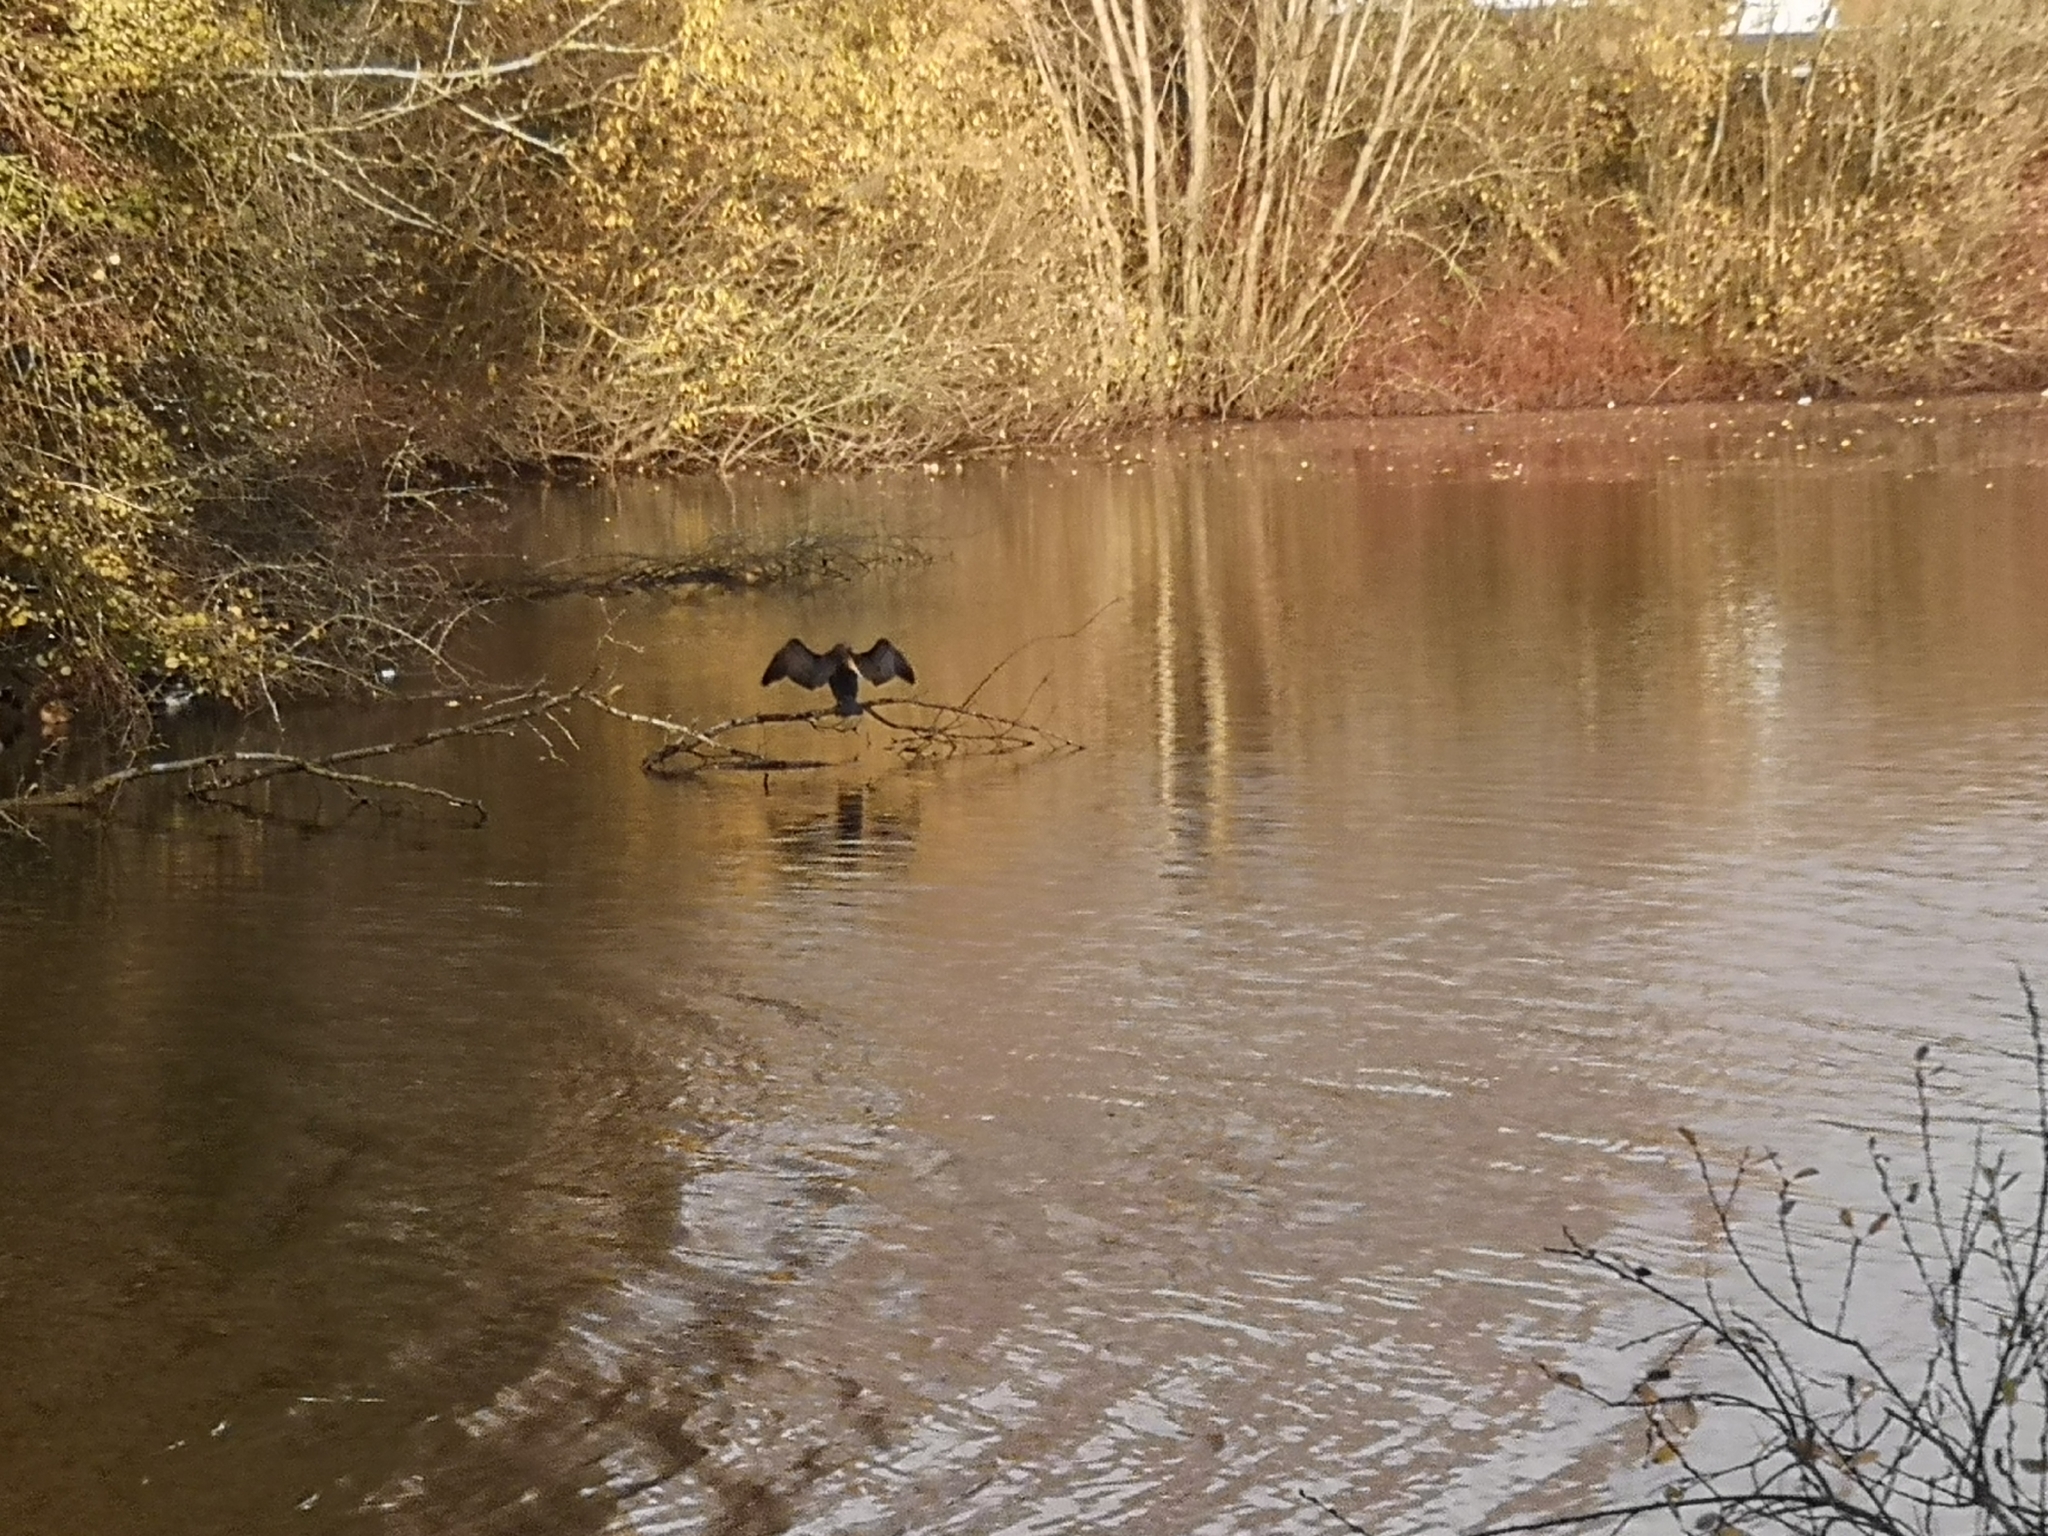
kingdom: Animalia
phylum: Chordata
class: Aves
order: Suliformes
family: Phalacrocoracidae
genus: Phalacrocorax
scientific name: Phalacrocorax carbo
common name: Great cormorant
